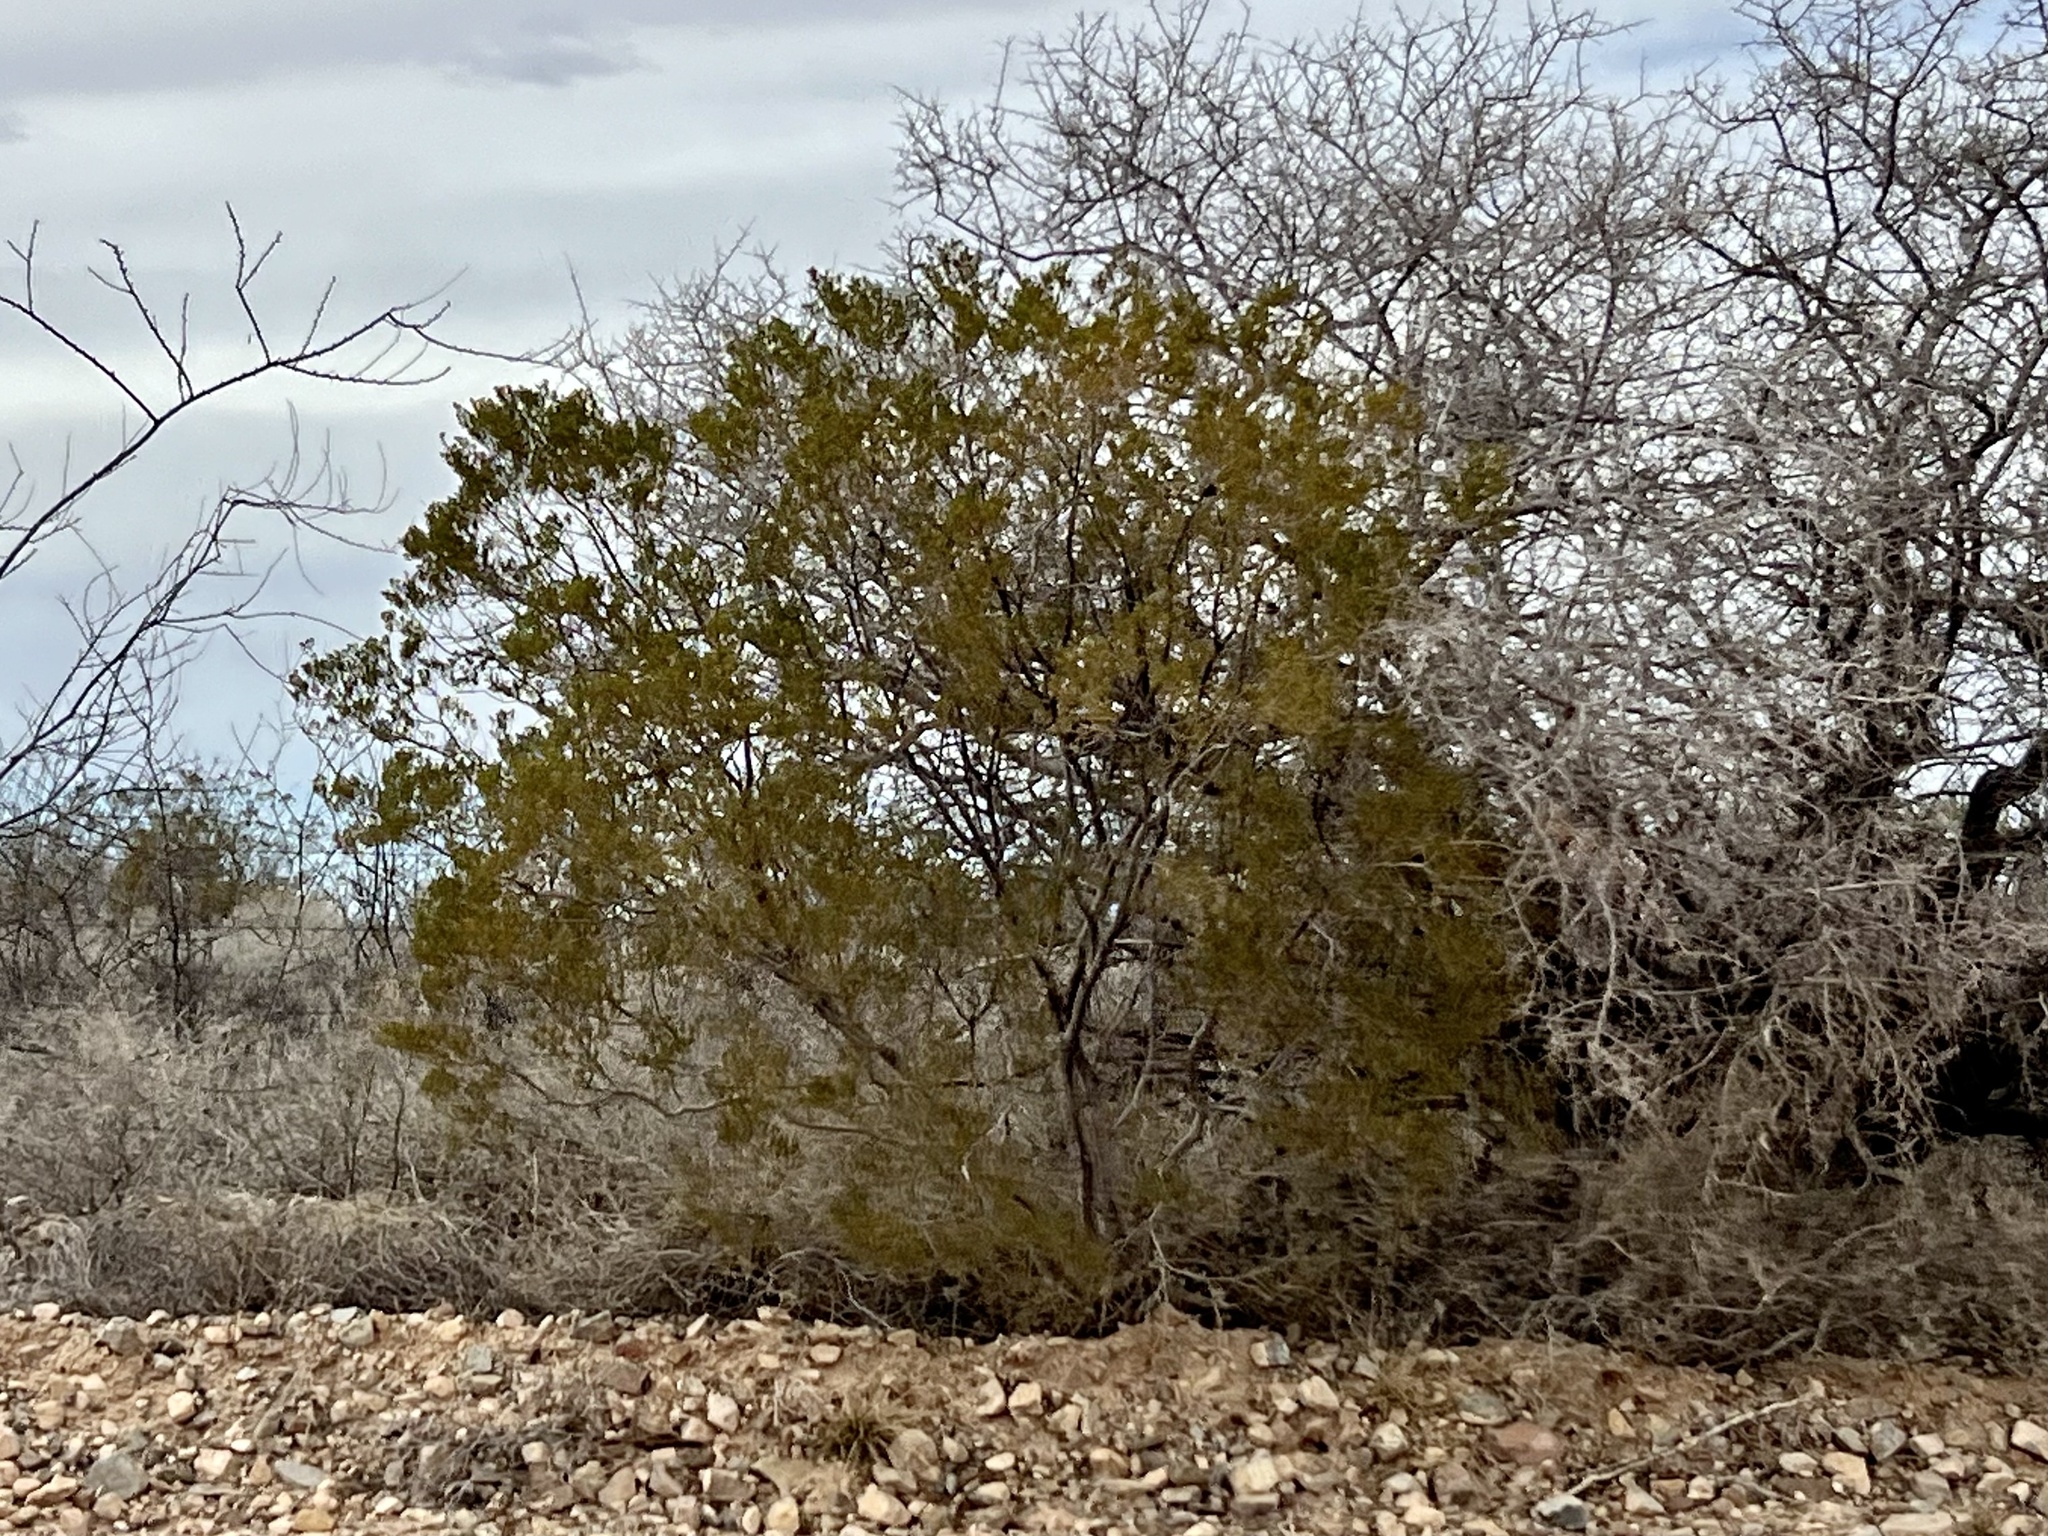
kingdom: Plantae
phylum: Tracheophyta
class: Magnoliopsida
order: Zygophyllales
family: Zygophyllaceae
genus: Larrea
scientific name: Larrea tridentata
